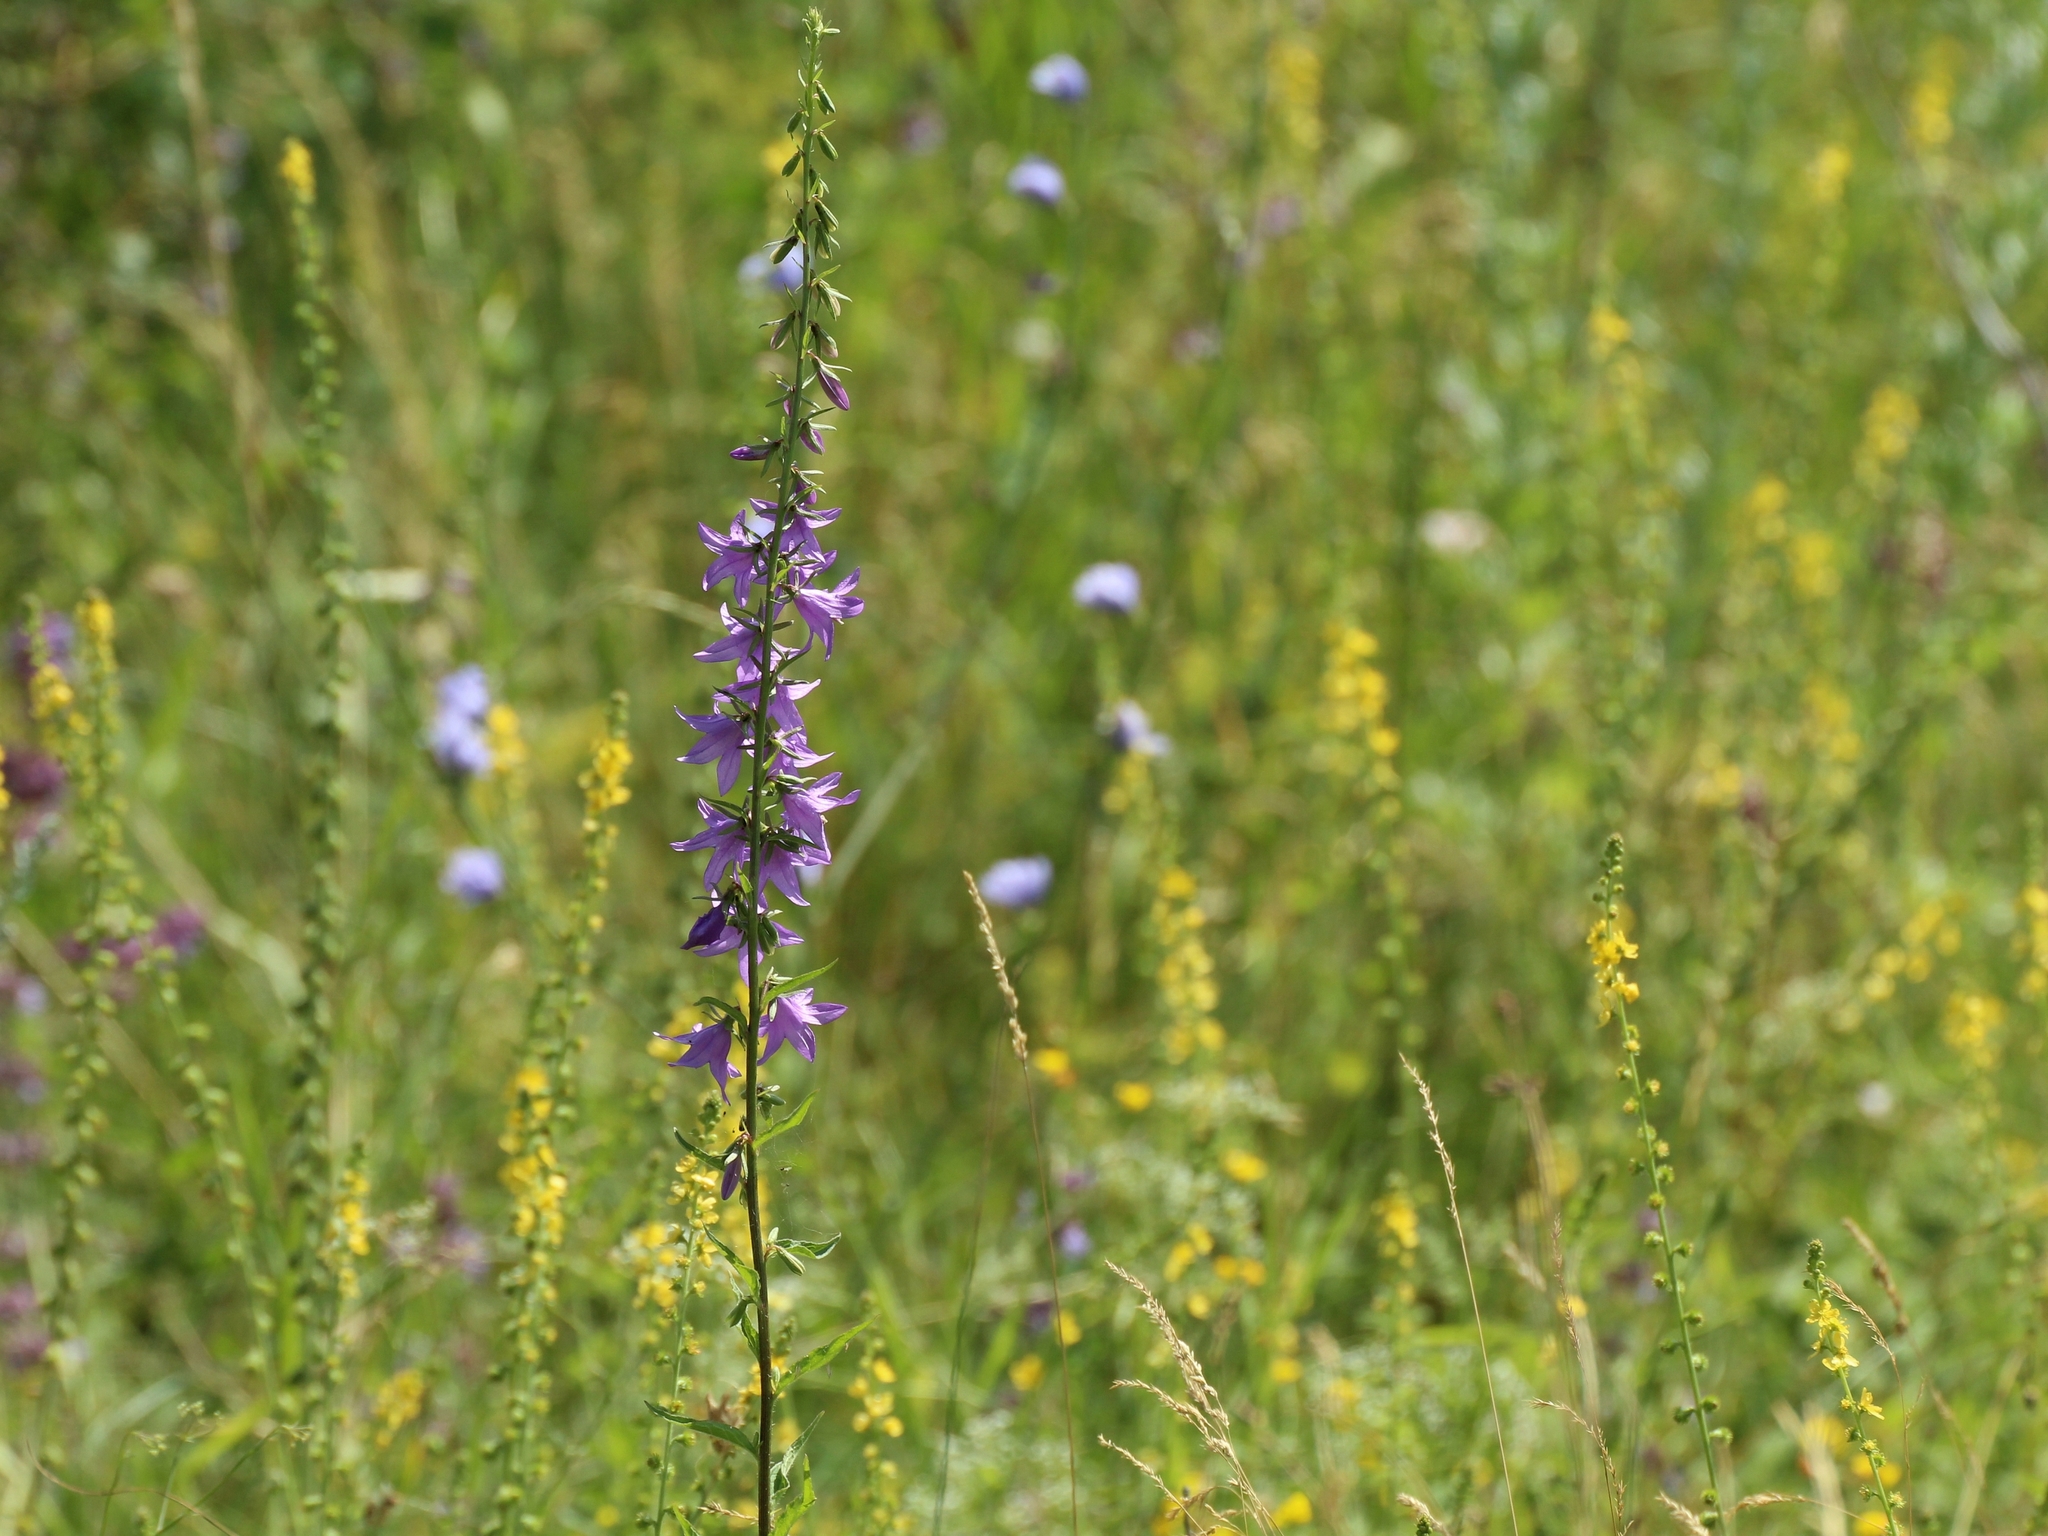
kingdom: Plantae
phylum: Tracheophyta
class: Magnoliopsida
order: Asterales
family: Campanulaceae
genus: Campanula
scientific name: Campanula rapunculoides
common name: Creeping bellflower
